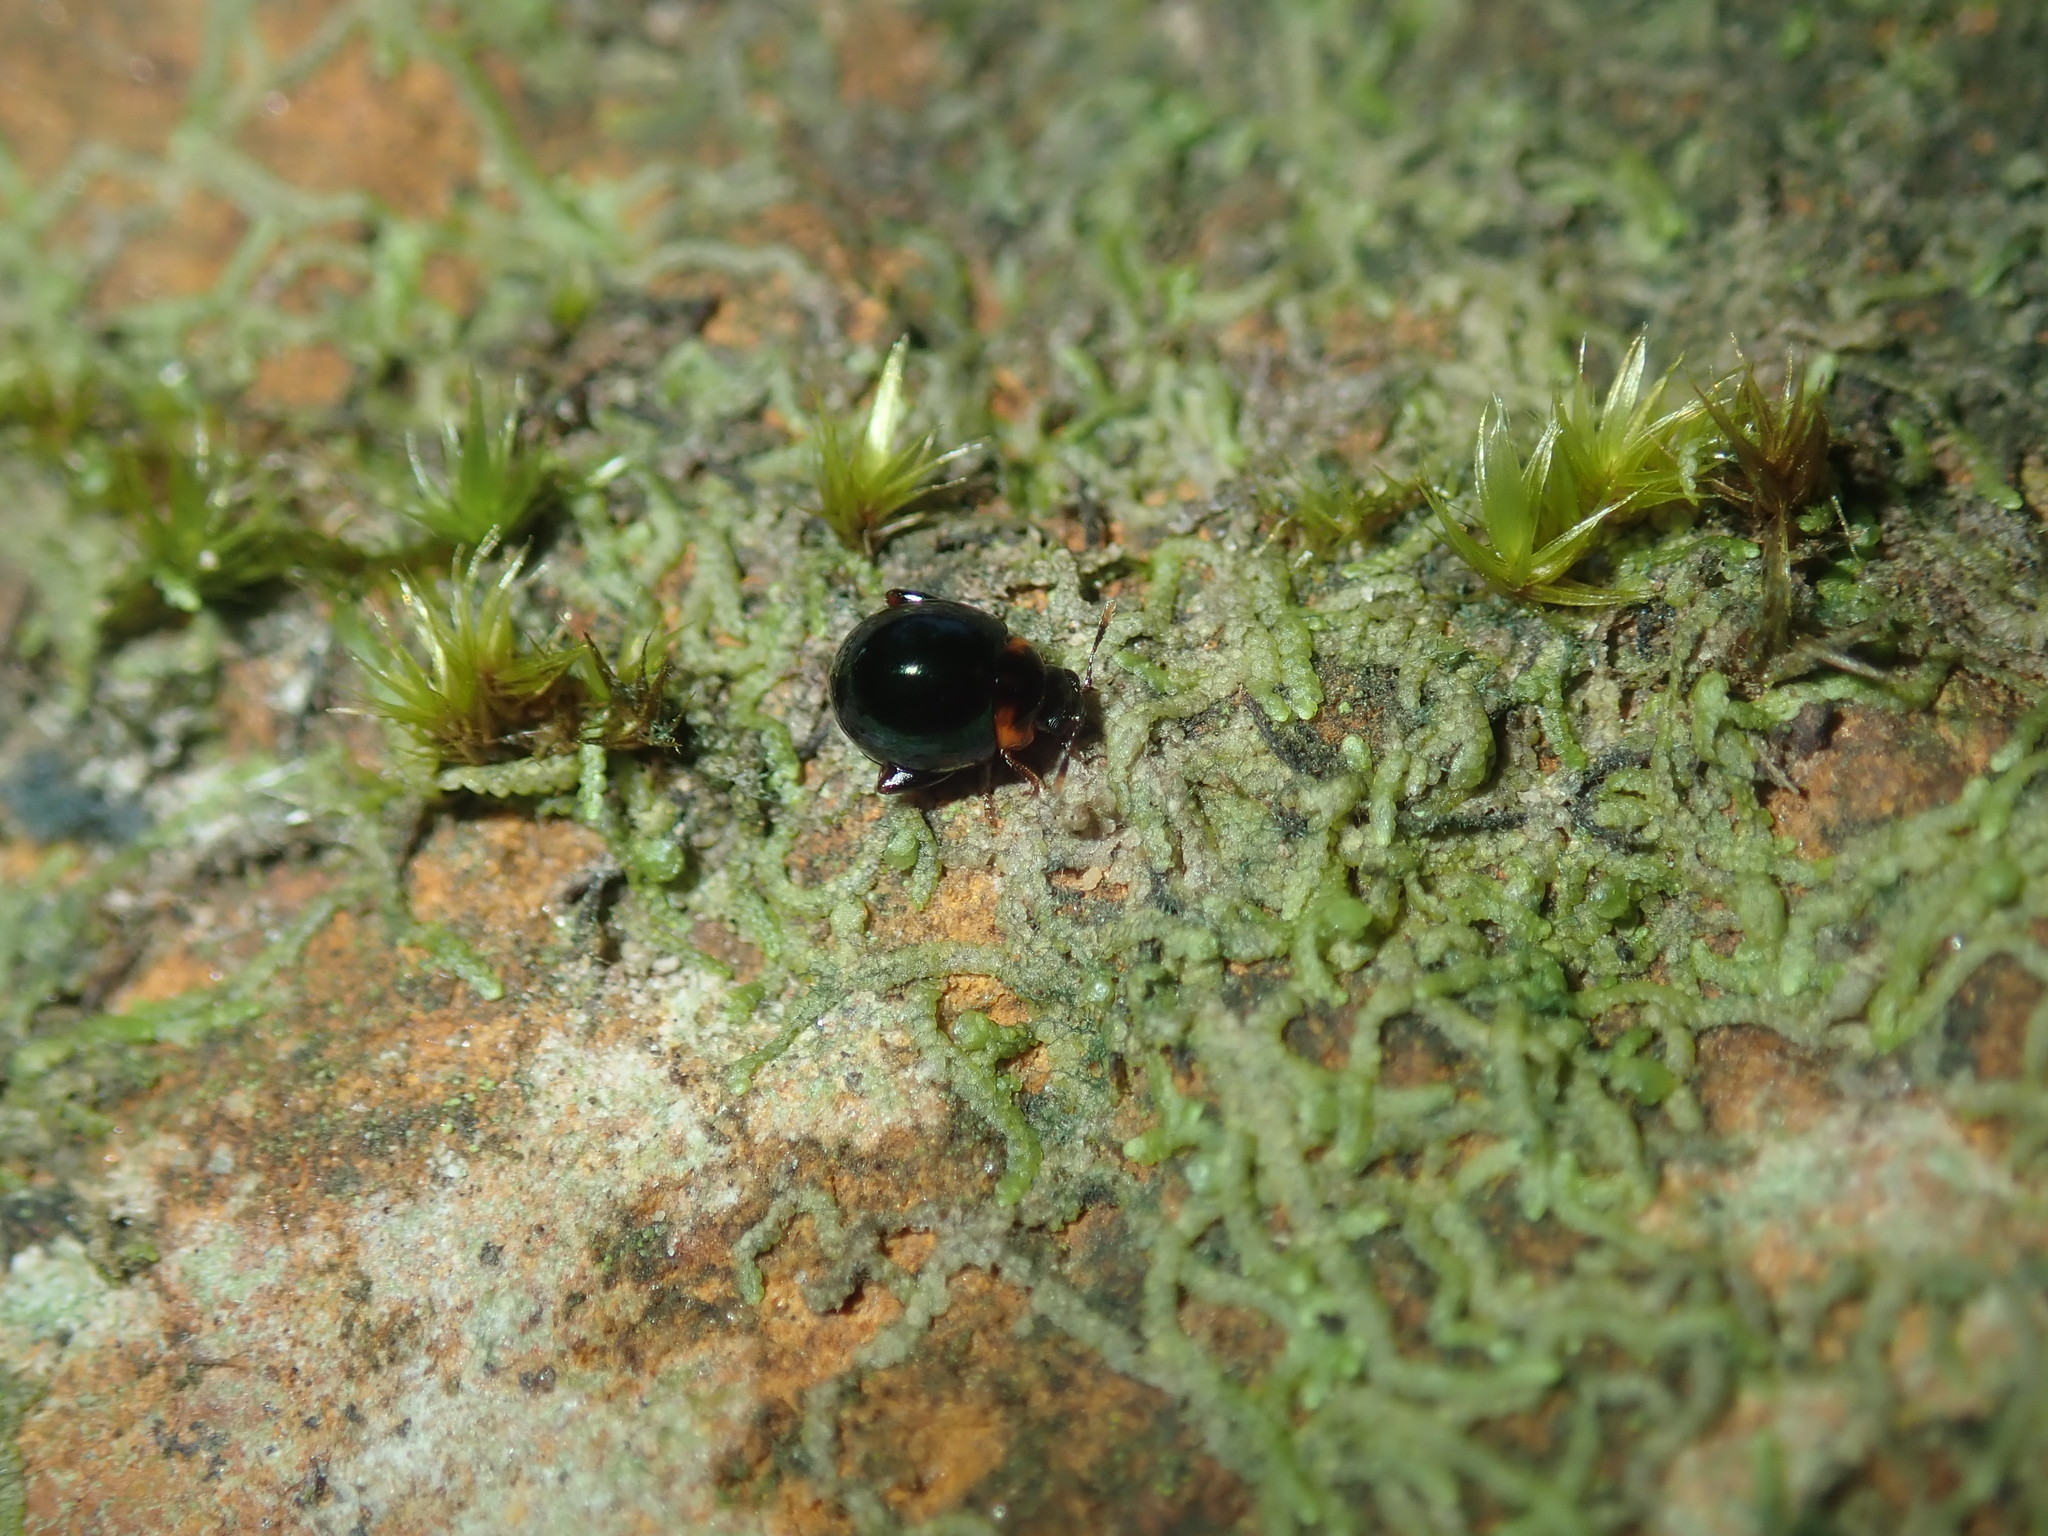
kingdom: Animalia
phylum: Arthropoda
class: Insecta
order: Coleoptera
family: Chrysomelidae
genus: Ivalia
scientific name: Ivalia
